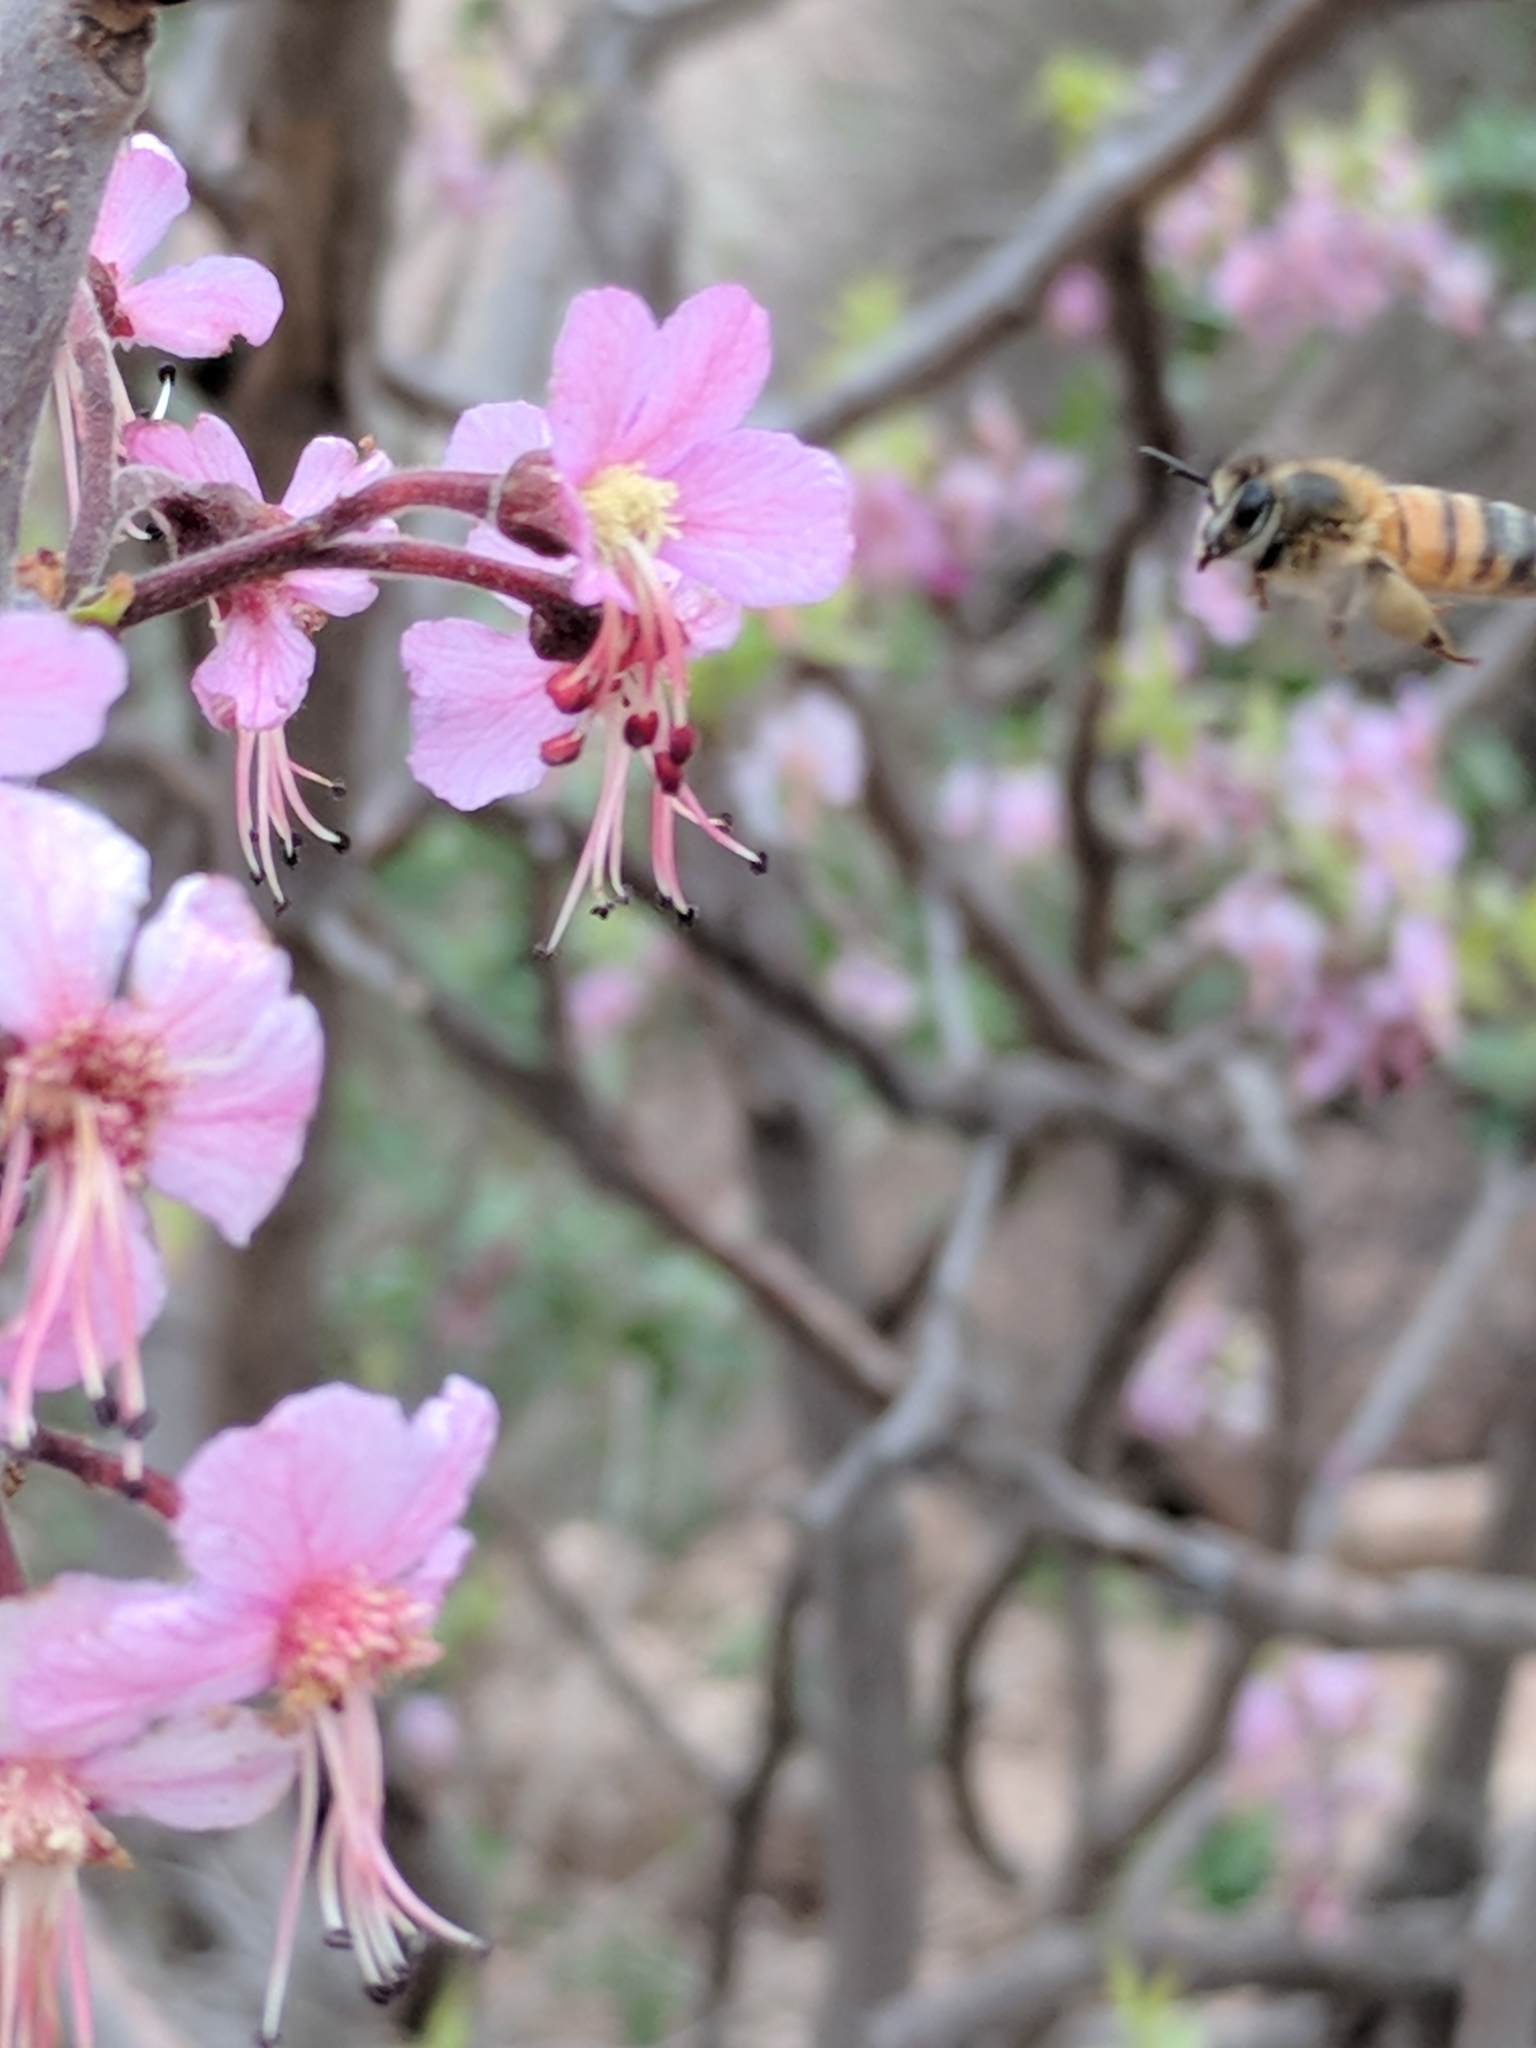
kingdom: Animalia
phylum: Arthropoda
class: Insecta
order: Hymenoptera
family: Apidae
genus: Apis
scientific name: Apis mellifera
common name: Honey bee
